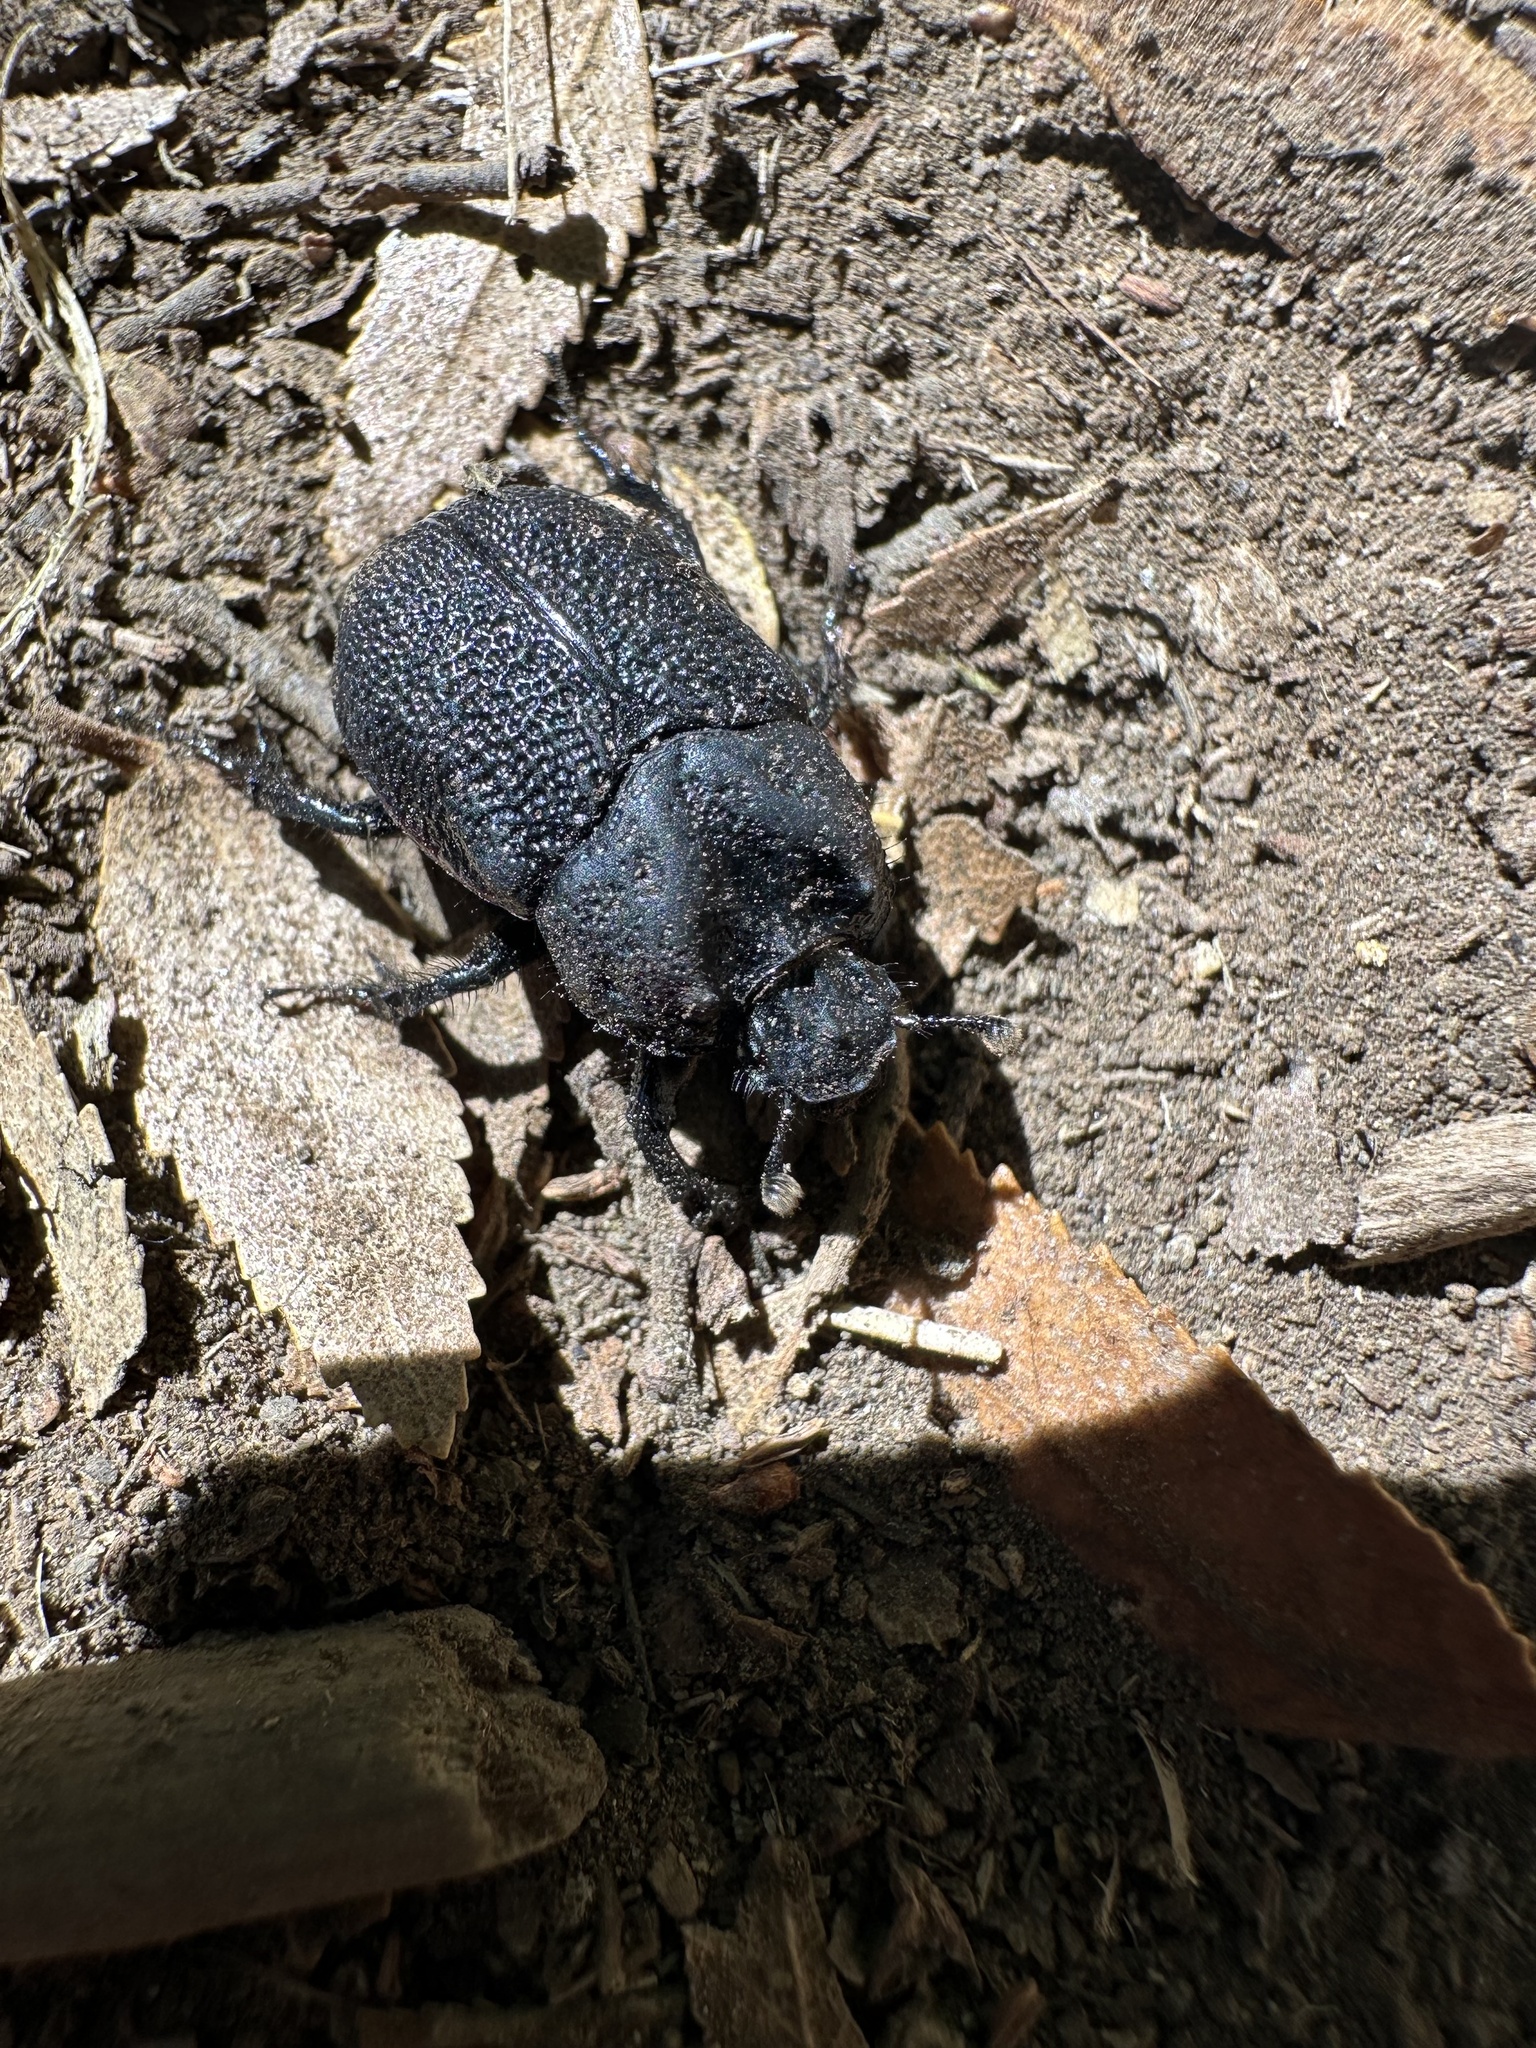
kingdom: Animalia
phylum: Arthropoda
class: Insecta
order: Coleoptera
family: Geotrupidae
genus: Frickius
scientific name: Frickius variolosus
